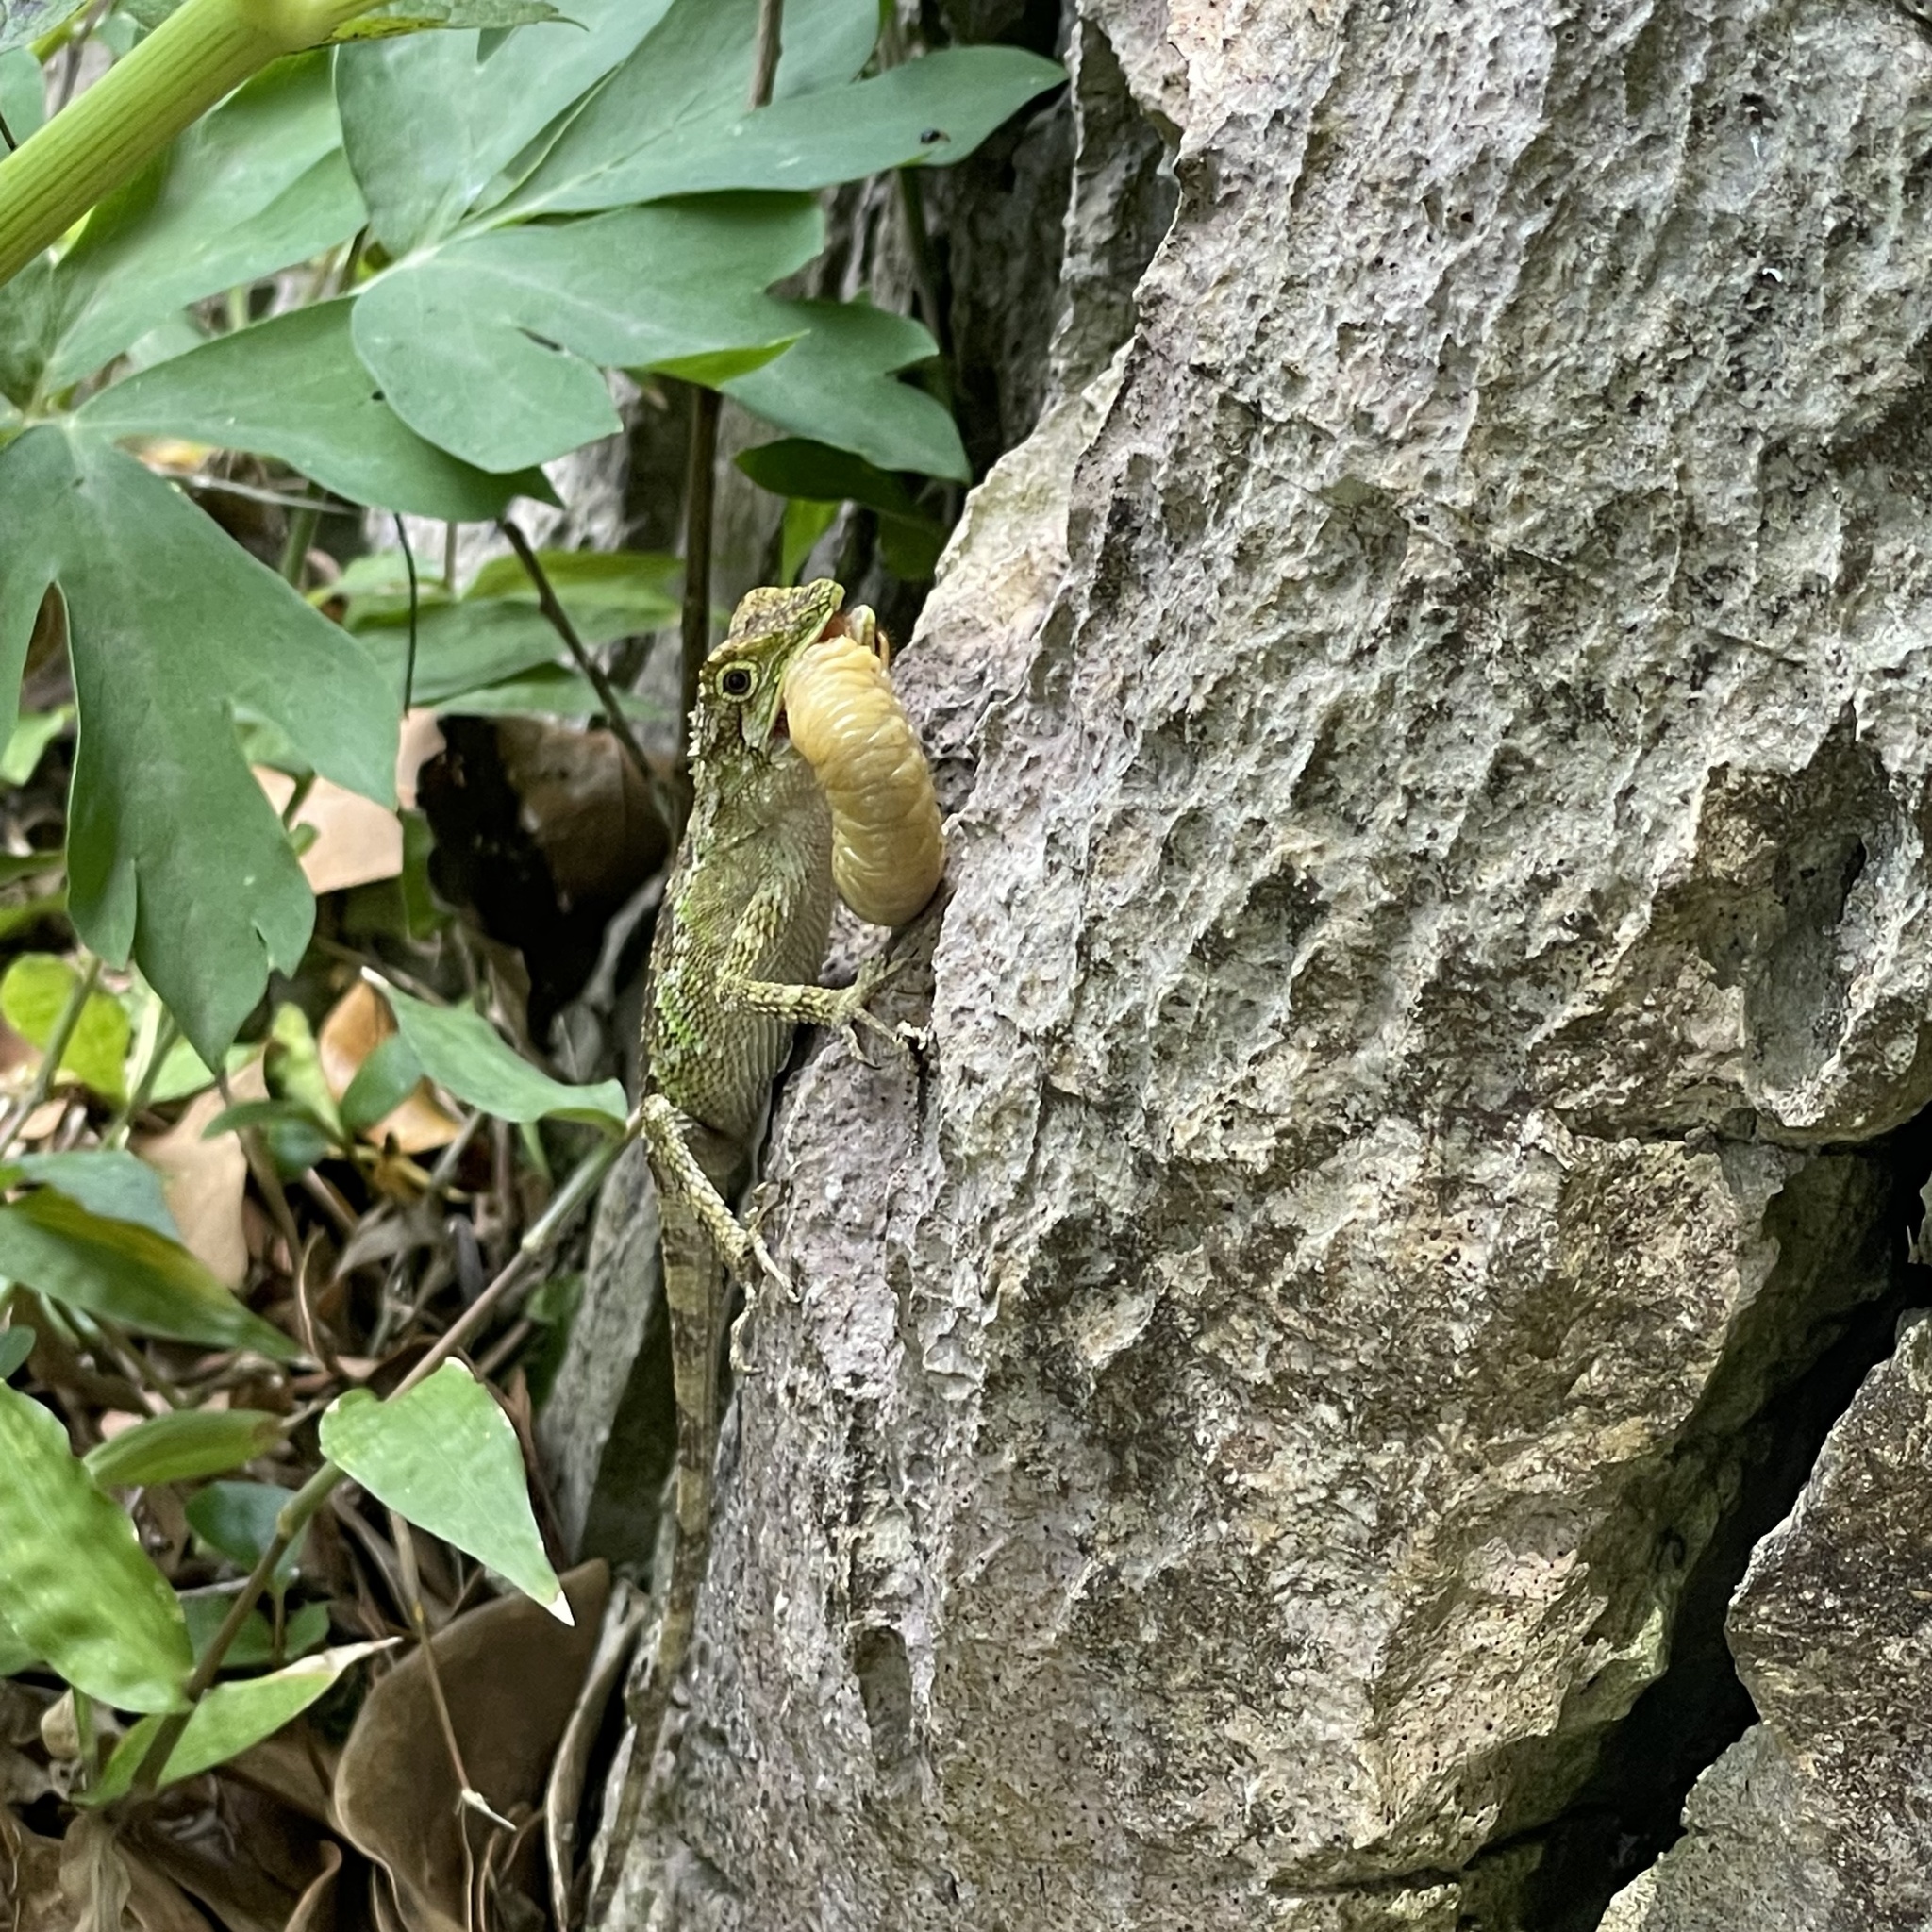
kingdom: Fungi
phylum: Basidiomycota
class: Agaricomycetes
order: Boletales
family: Diplocystidiaceae
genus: Diploderma
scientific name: Diploderma polygonatum
